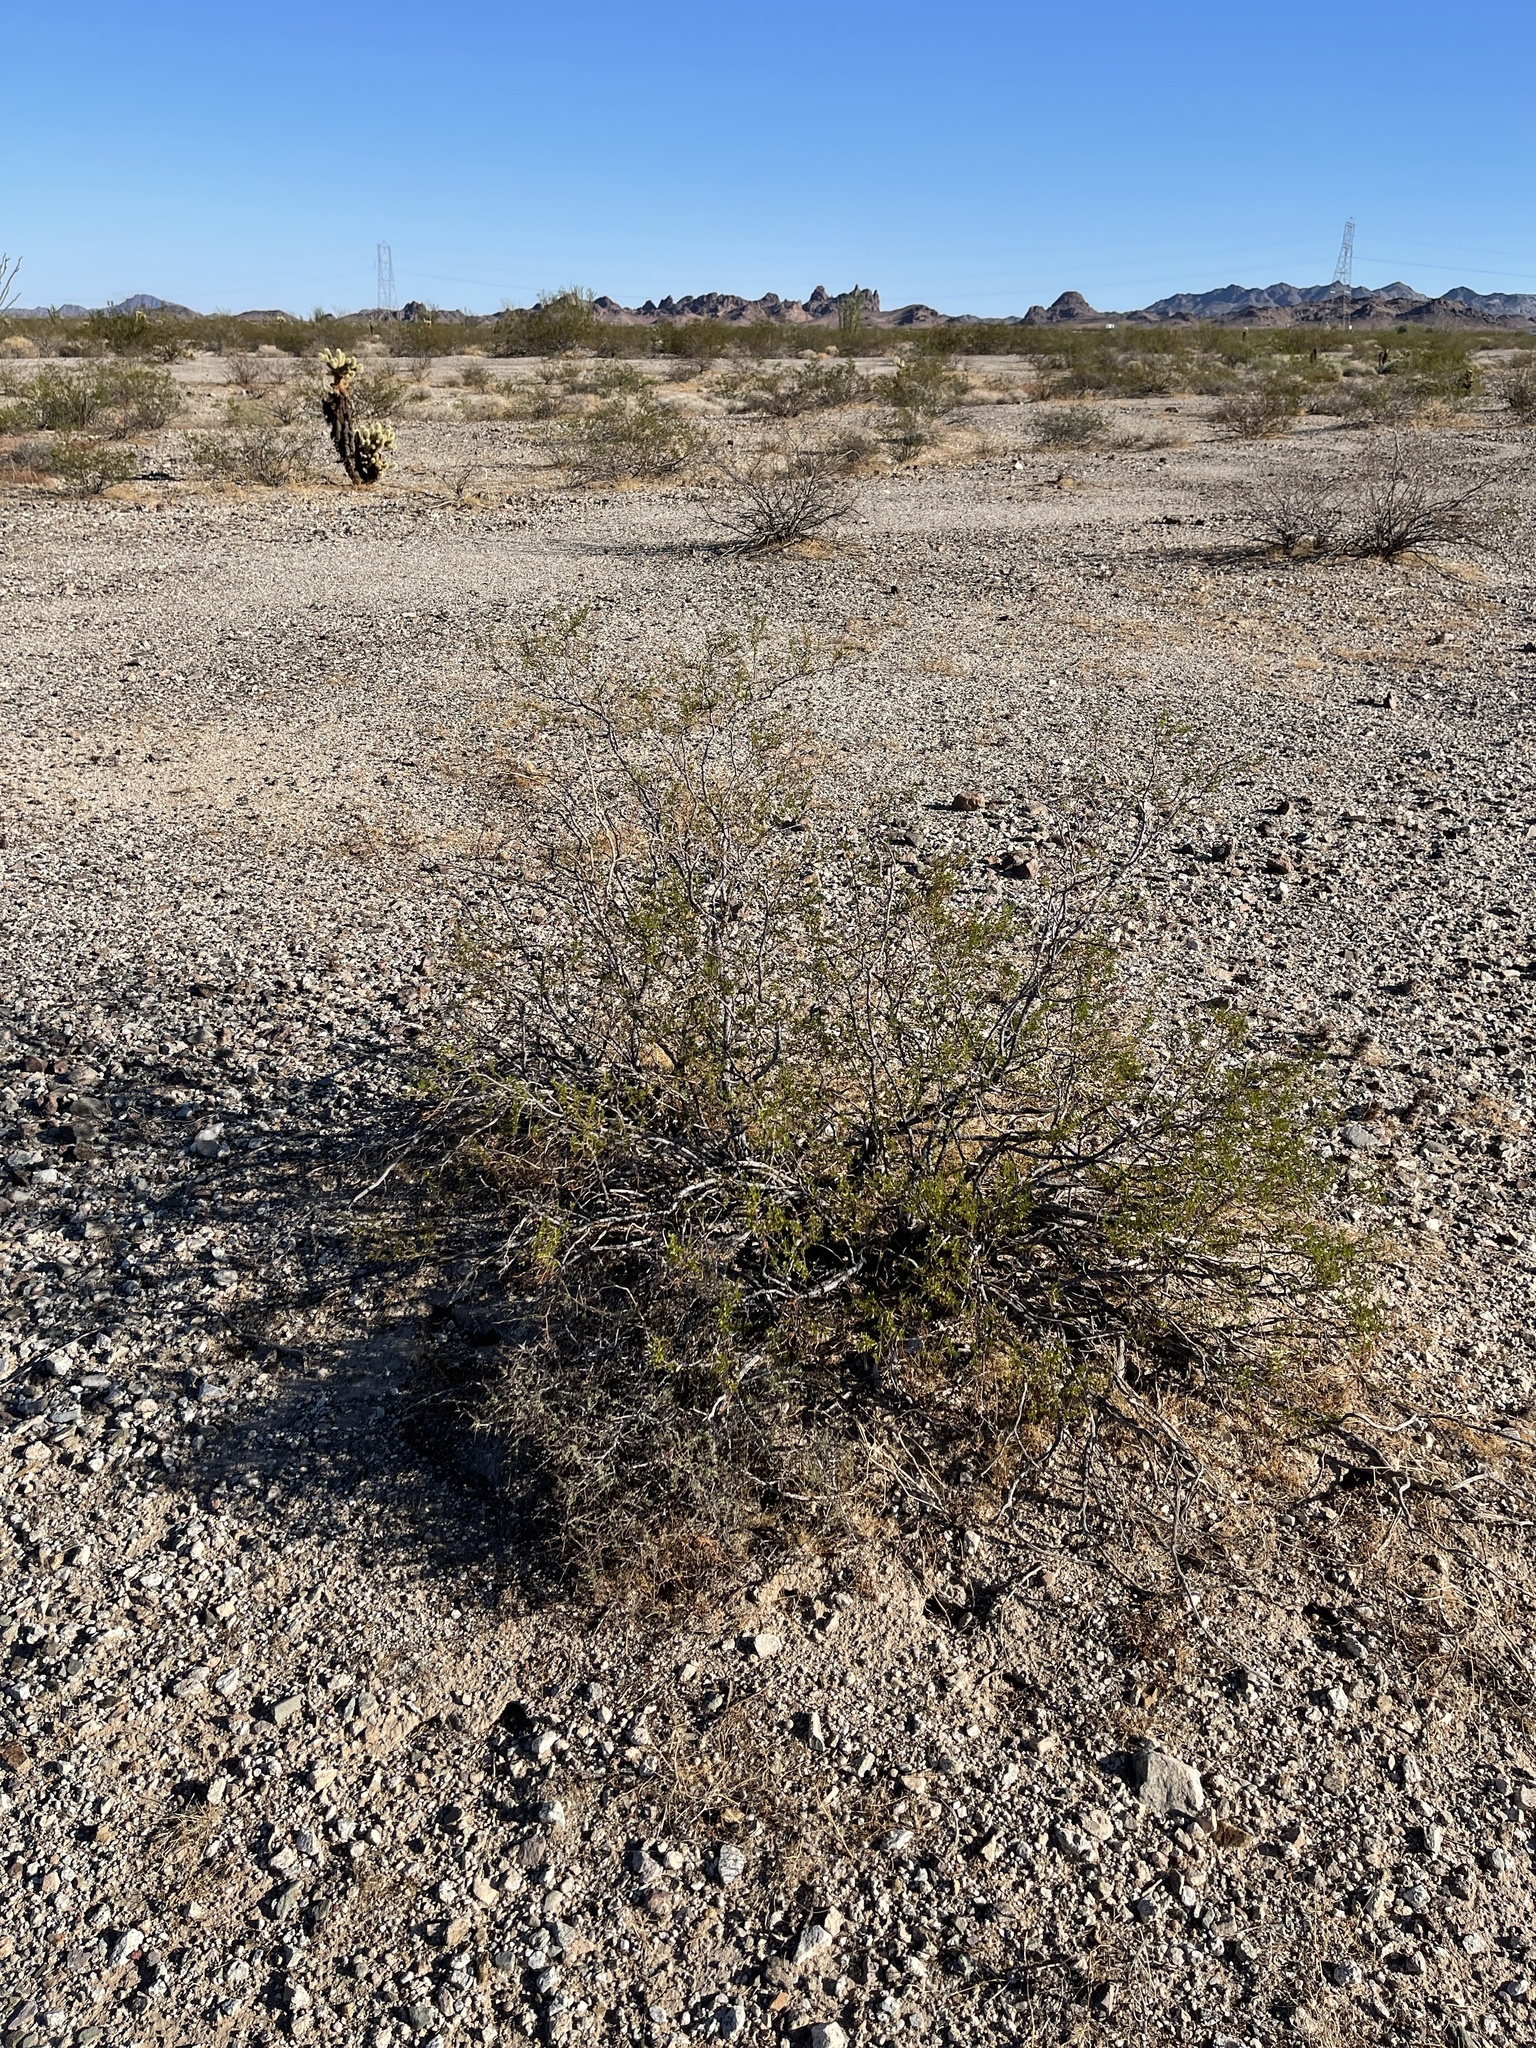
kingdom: Plantae
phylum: Tracheophyta
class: Magnoliopsida
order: Zygophyllales
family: Zygophyllaceae
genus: Larrea
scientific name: Larrea tridentata
